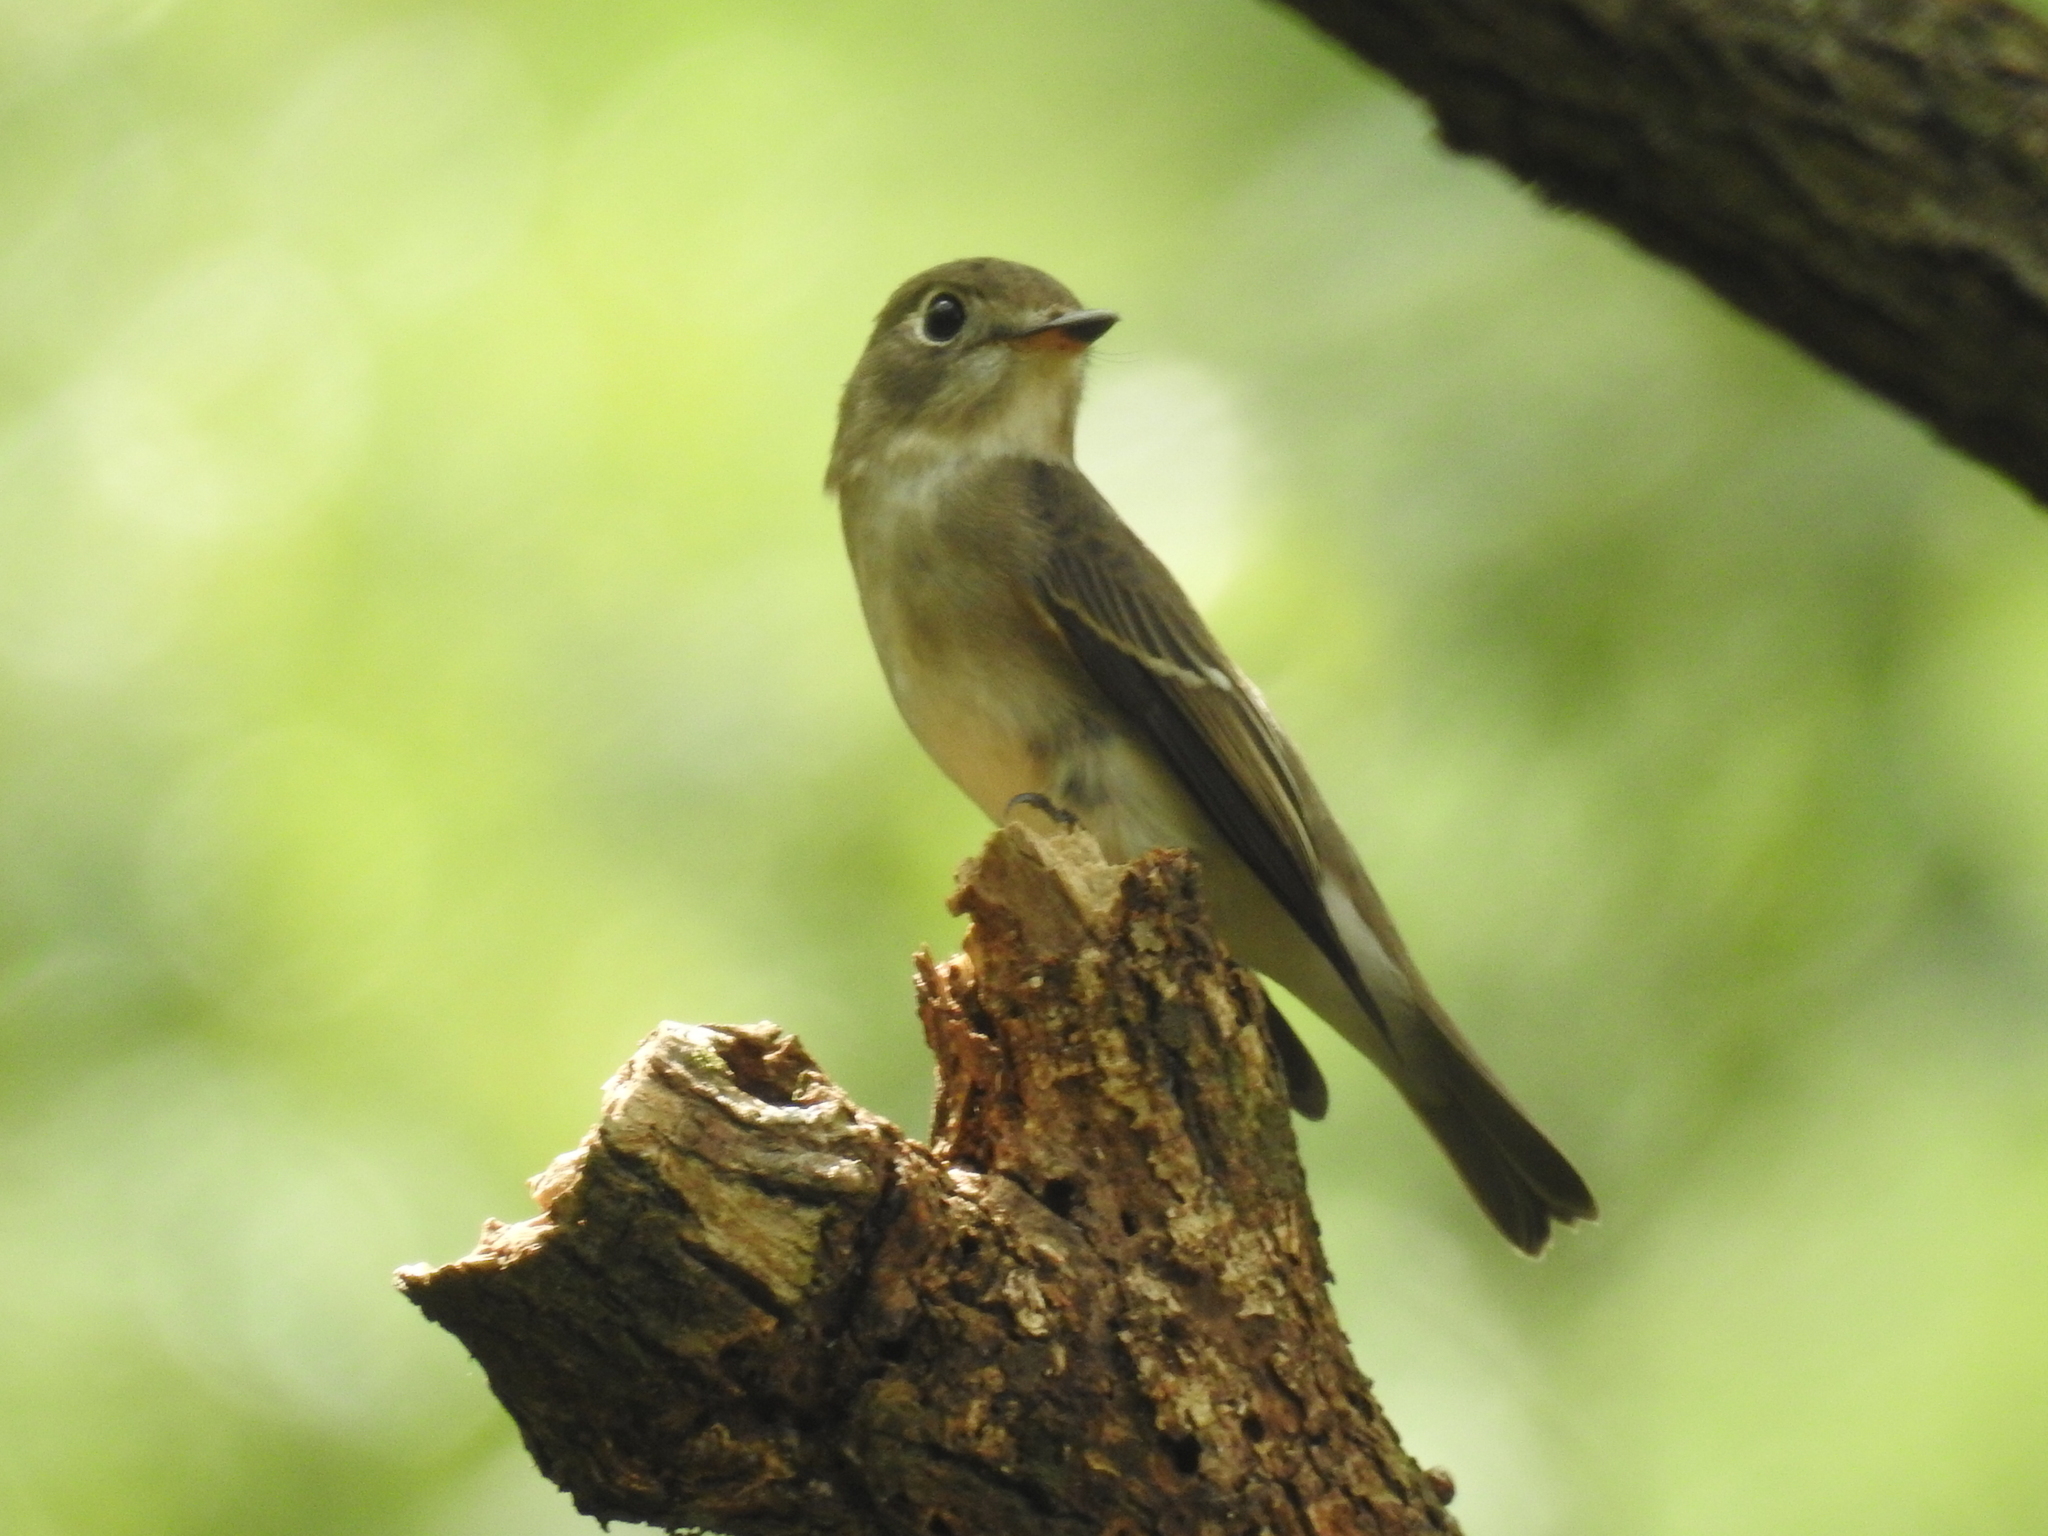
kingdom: Animalia
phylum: Chordata
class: Aves
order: Passeriformes
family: Muscicapidae
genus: Muscicapa
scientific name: Muscicapa latirostris
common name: Asian brown flycatcher
